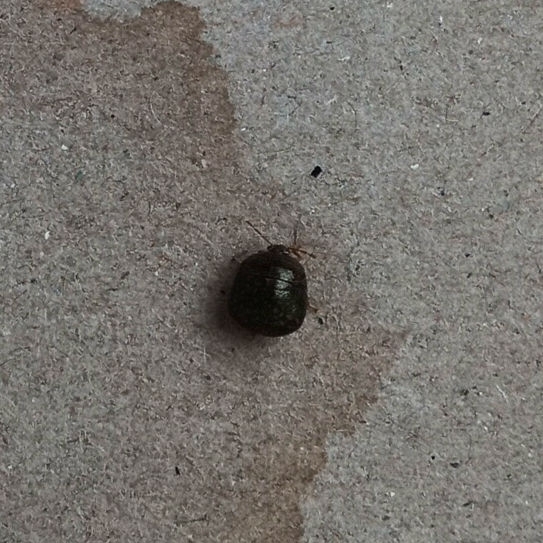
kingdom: Animalia
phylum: Arthropoda
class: Insecta
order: Hemiptera
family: Plataspidae
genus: Megacopta
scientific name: Megacopta cribraria
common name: Bean plataspid
